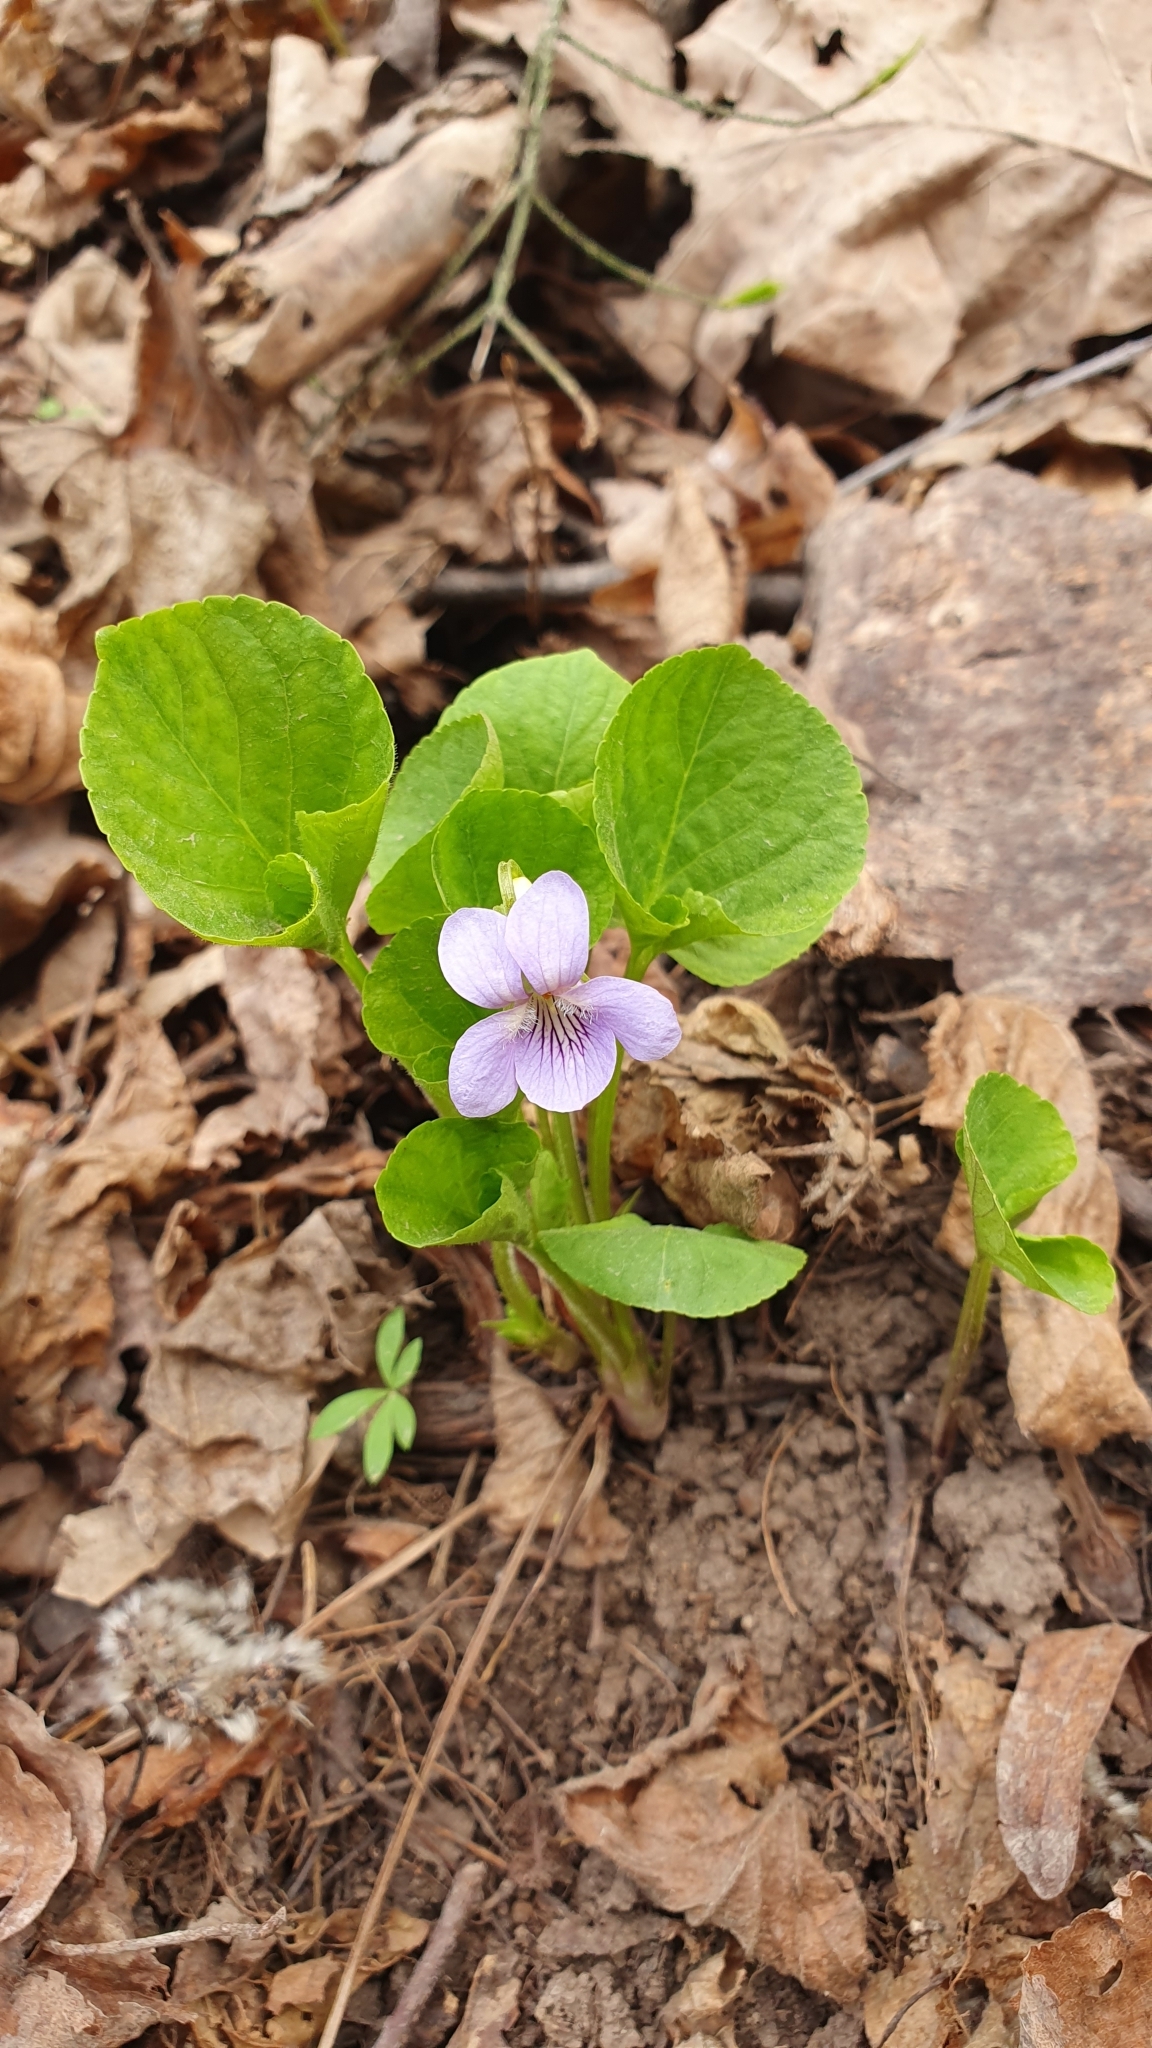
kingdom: Plantae
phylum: Tracheophyta
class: Magnoliopsida
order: Malpighiales
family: Violaceae
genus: Viola
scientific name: Viola mirabilis
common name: Wonder violet
